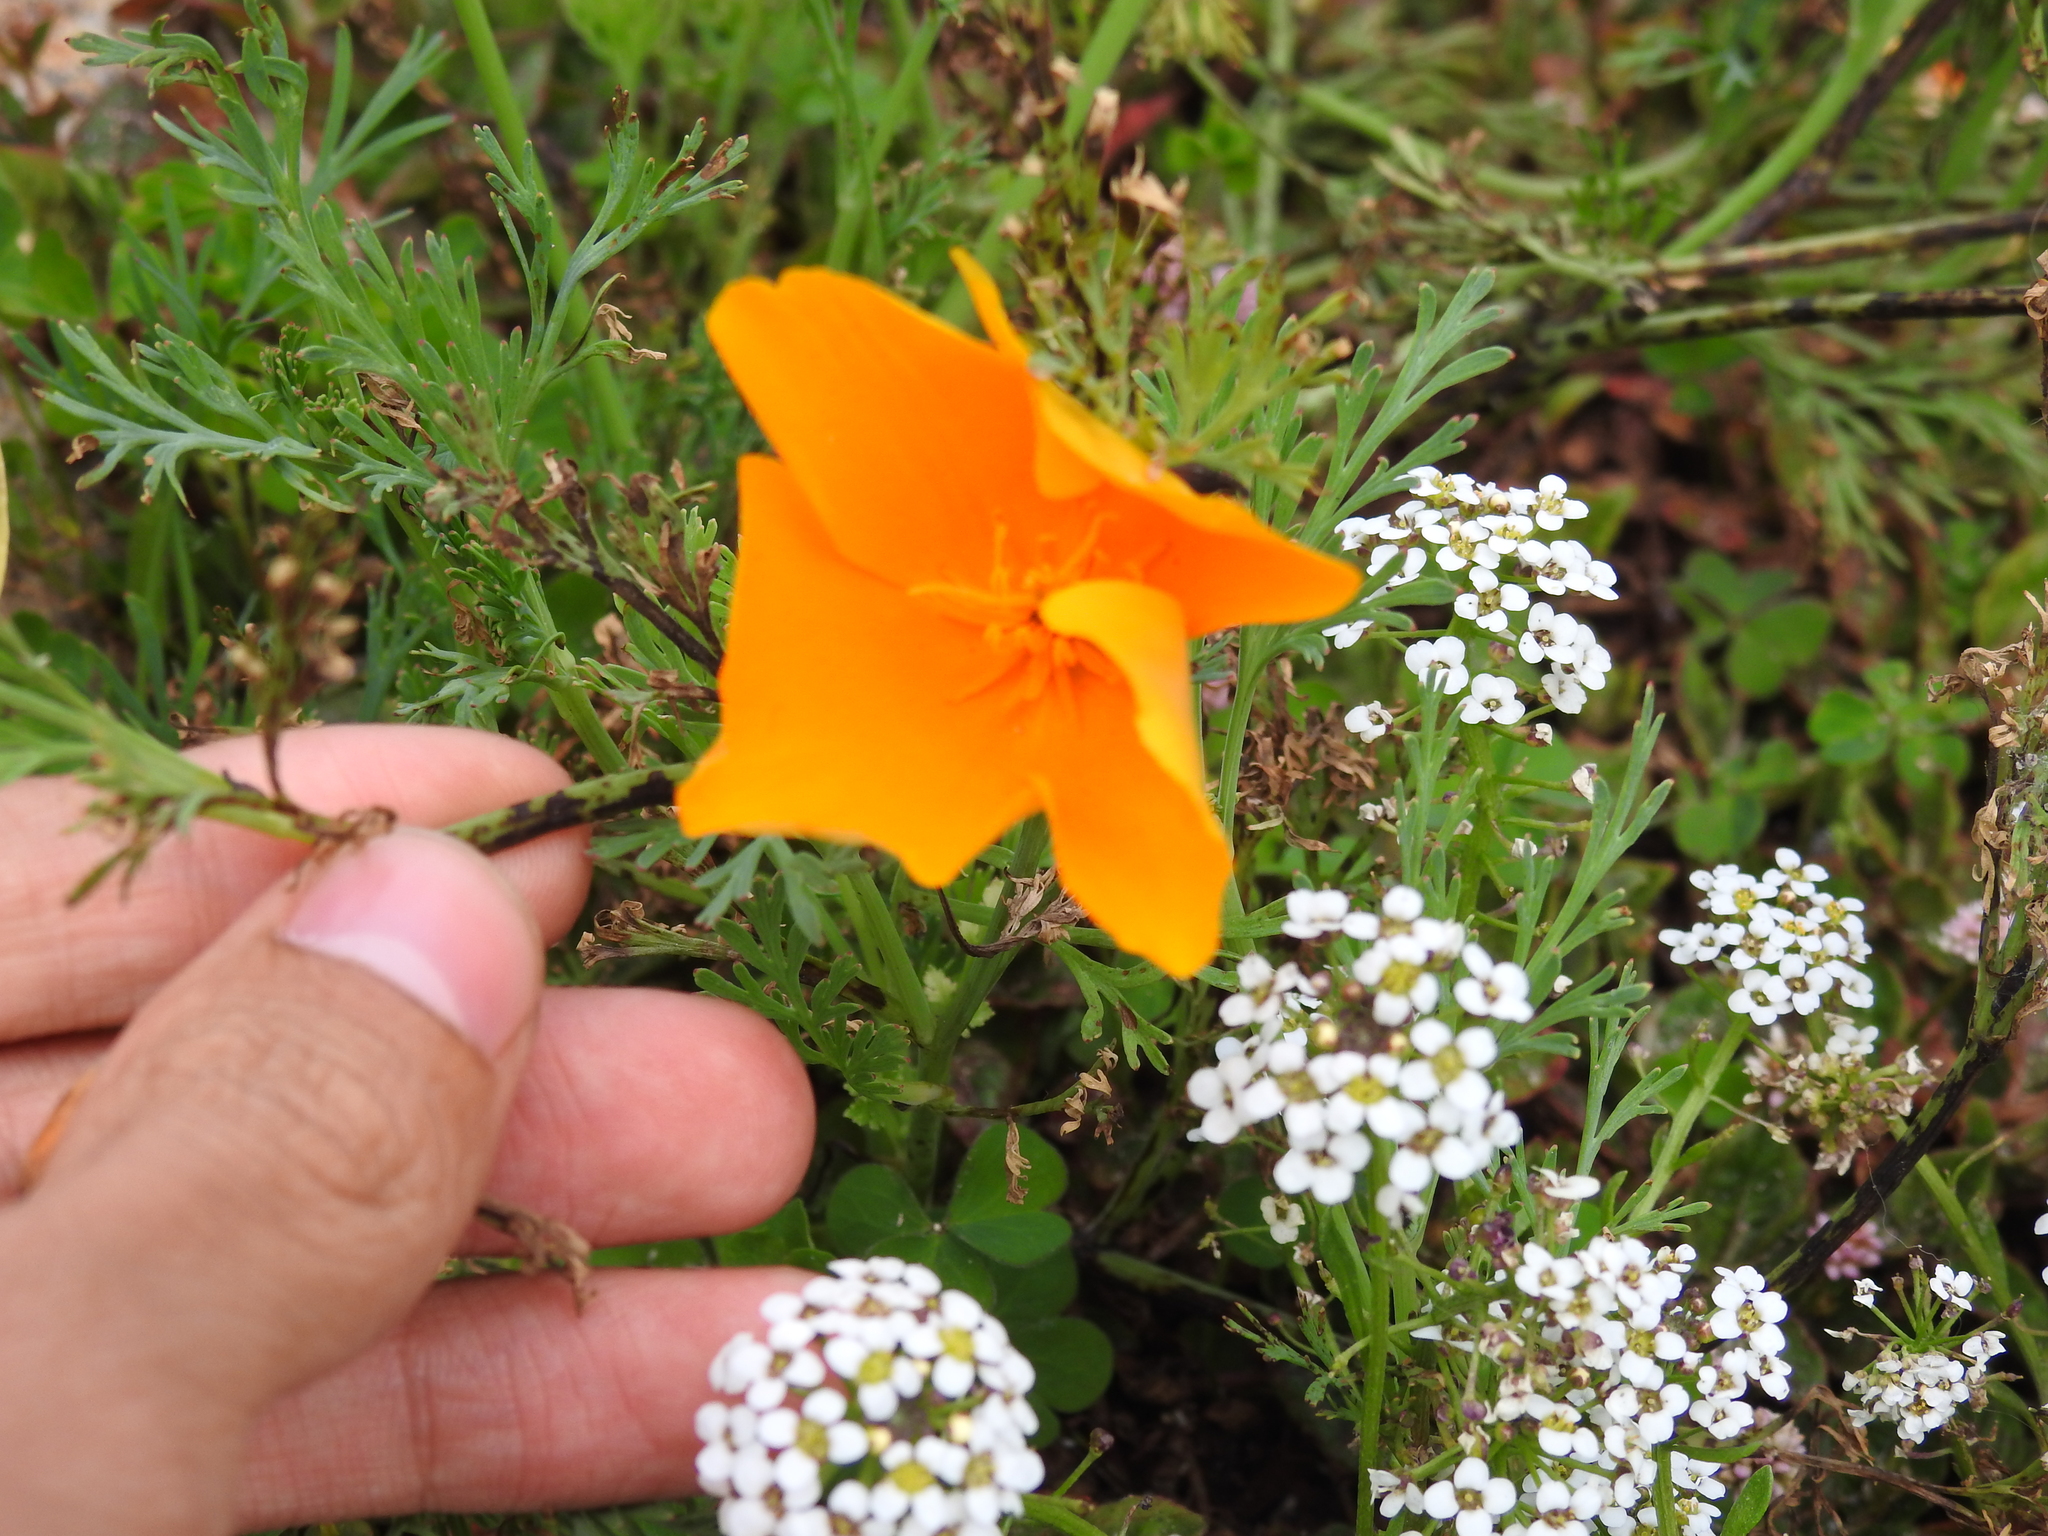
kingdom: Plantae
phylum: Tracheophyta
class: Magnoliopsida
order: Ranunculales
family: Papaveraceae
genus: Eschscholzia
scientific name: Eschscholzia californica
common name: California poppy
